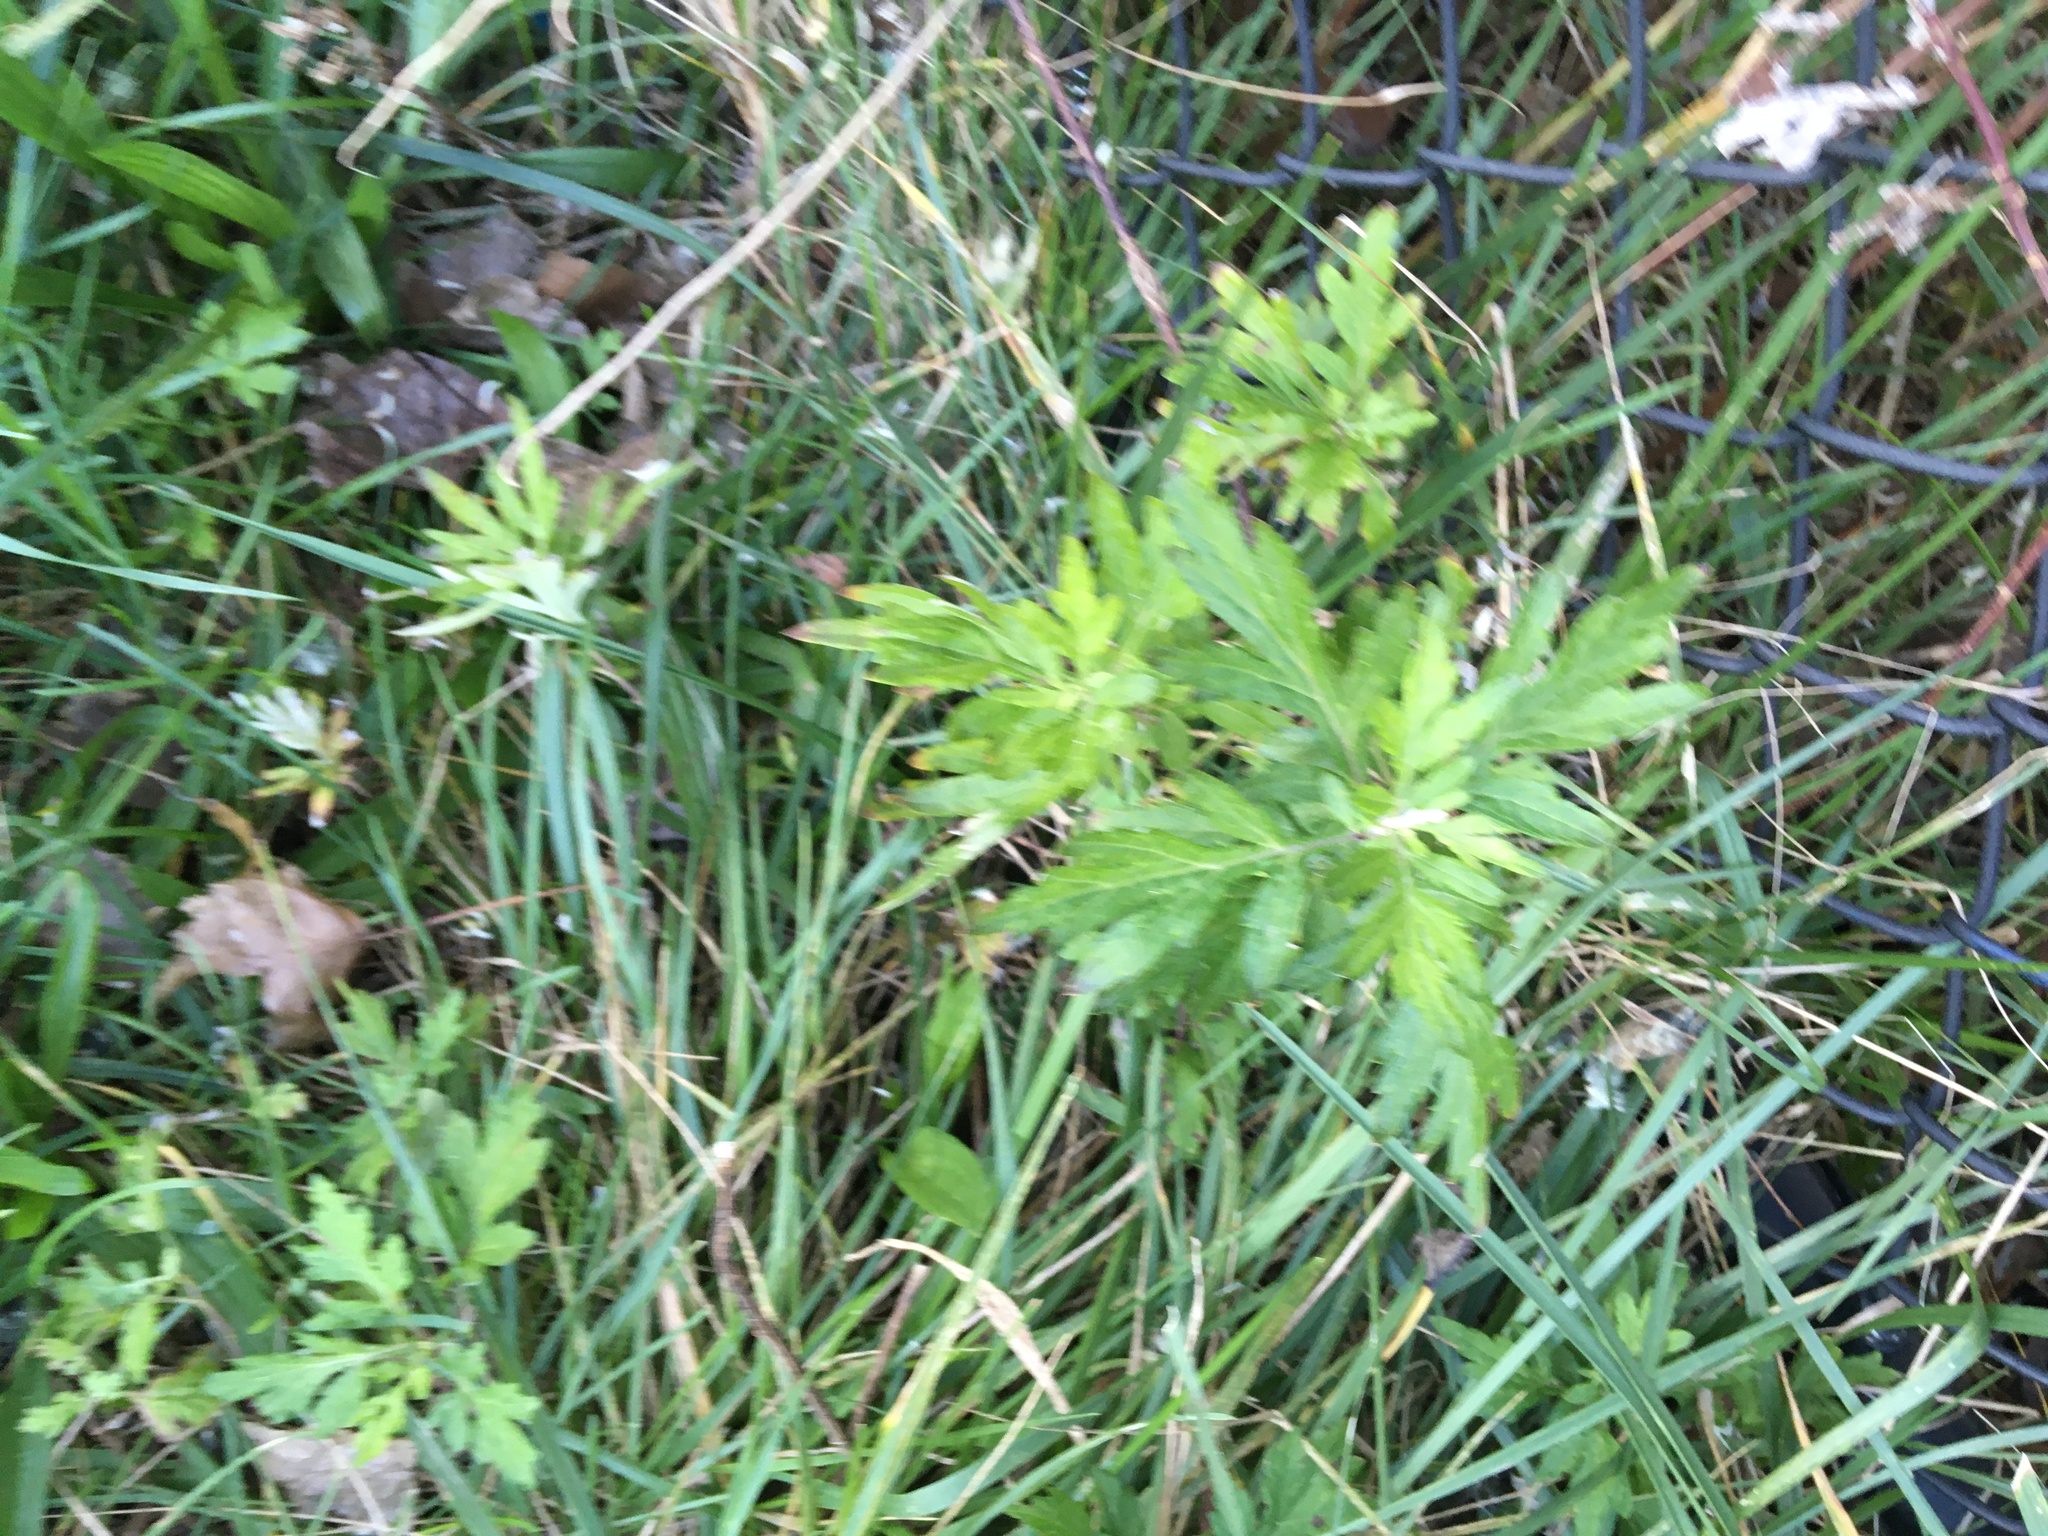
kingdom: Plantae
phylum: Tracheophyta
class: Magnoliopsida
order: Asterales
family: Asteraceae
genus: Artemisia
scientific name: Artemisia vulgaris
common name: Mugwort
